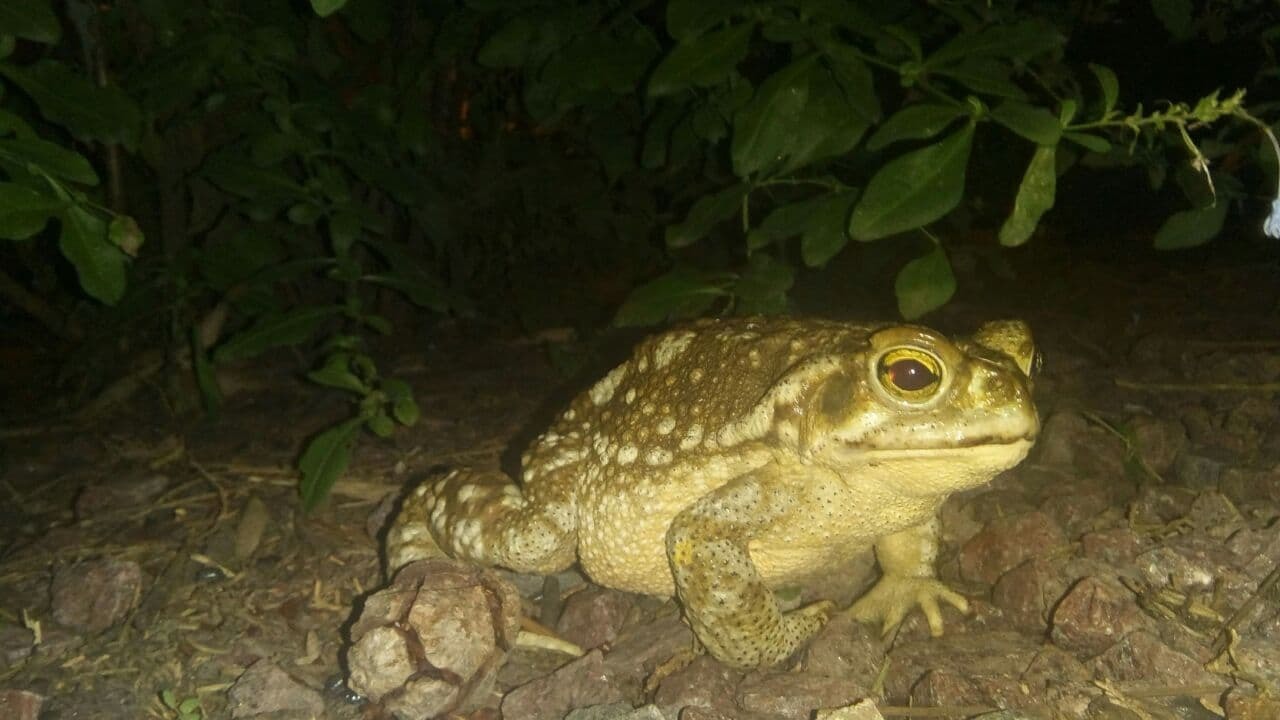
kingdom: Animalia
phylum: Chordata
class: Amphibia
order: Anura
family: Bufonidae
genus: Rhinella
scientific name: Rhinella arenarum
